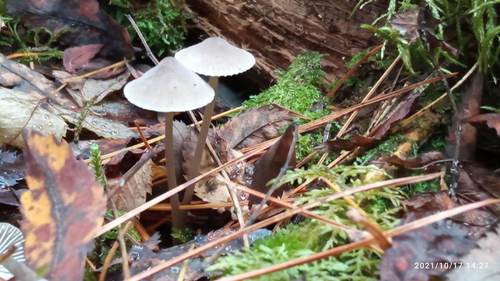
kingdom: Fungi
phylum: Basidiomycota
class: Agaricomycetes
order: Agaricales
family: Mycenaceae
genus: Mycena
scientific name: Mycena
